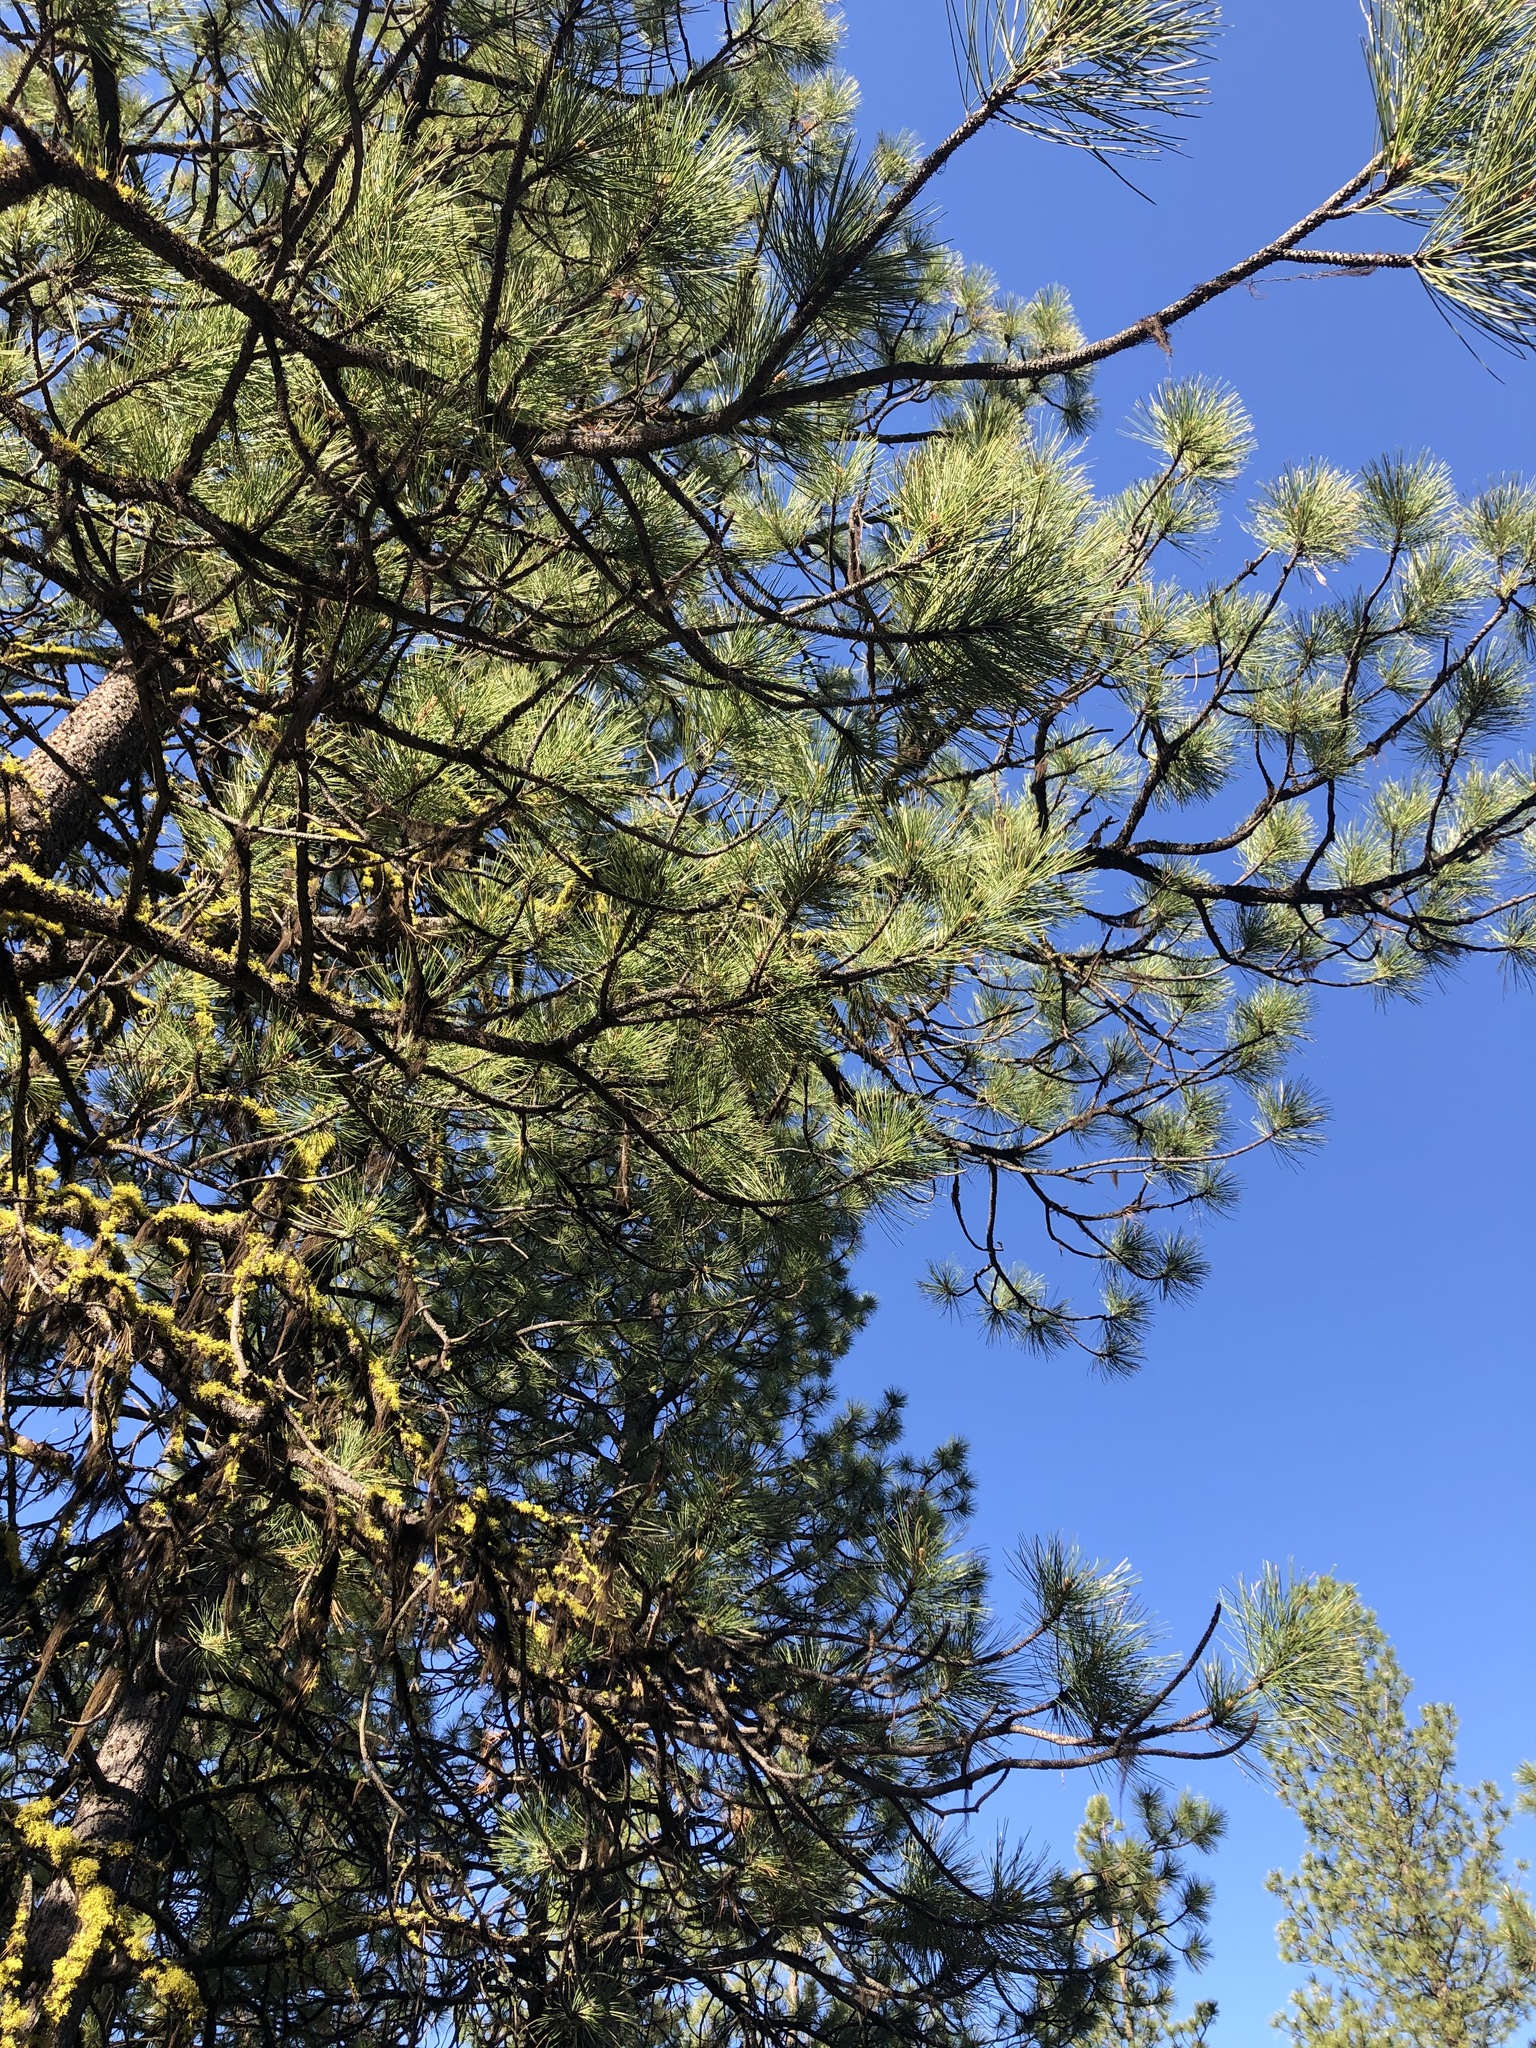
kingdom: Plantae
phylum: Tracheophyta
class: Pinopsida
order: Pinales
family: Pinaceae
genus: Pinus
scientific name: Pinus ponderosa
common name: Western yellow-pine
